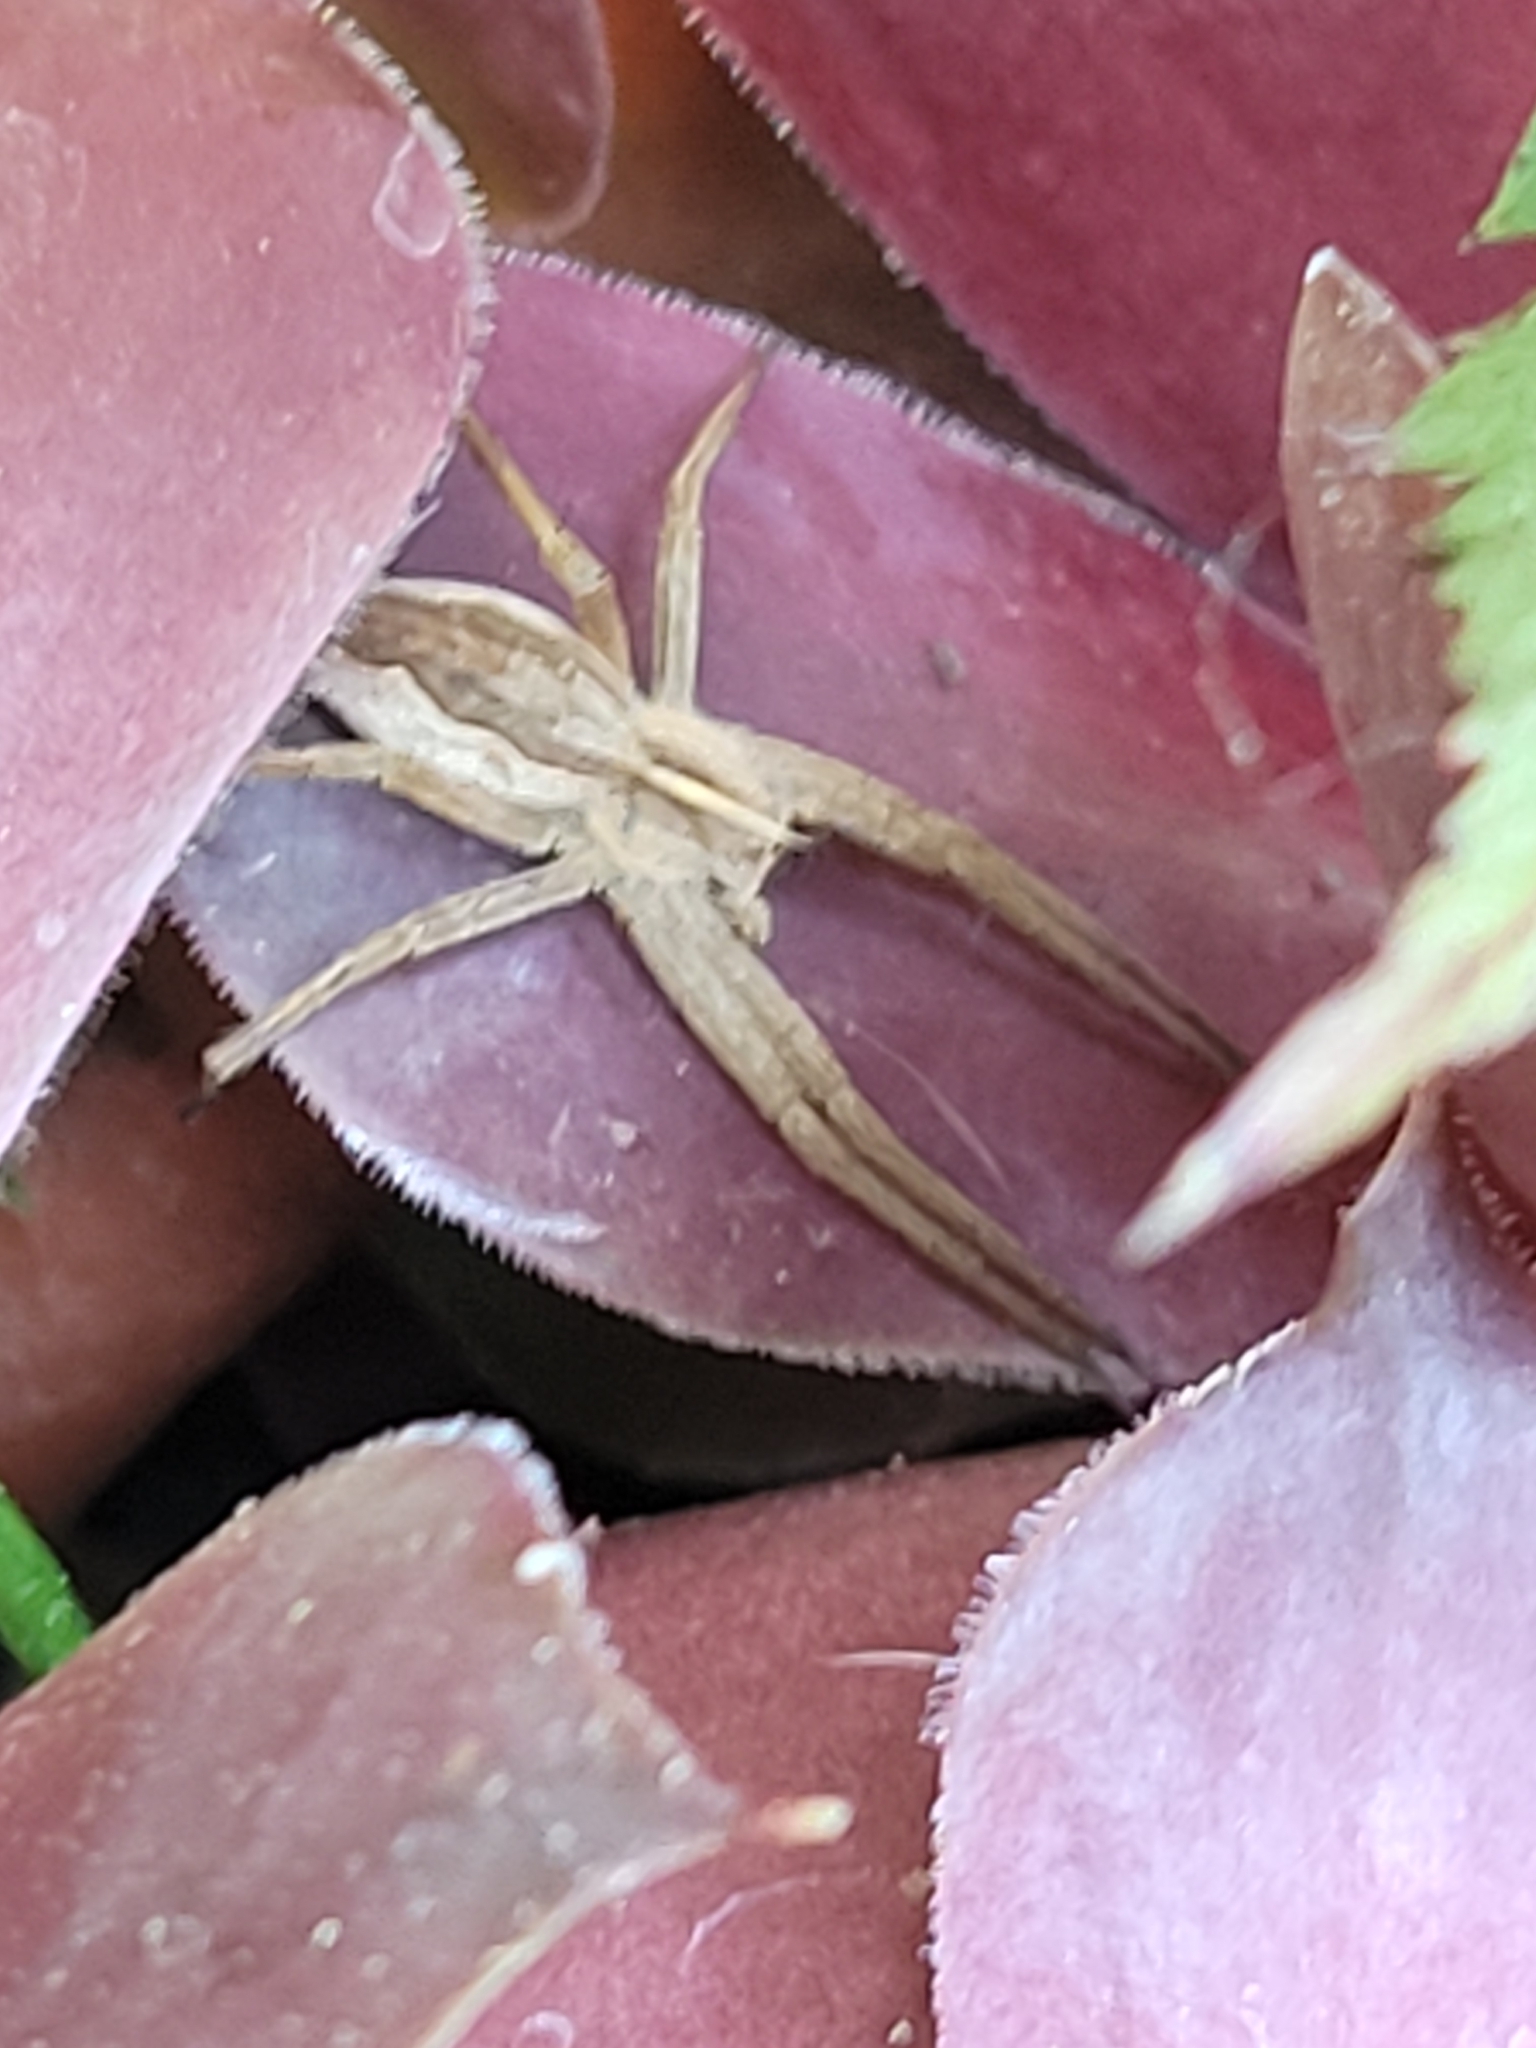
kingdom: Animalia
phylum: Arthropoda
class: Arachnida
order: Araneae
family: Pisauridae
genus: Pisaura
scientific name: Pisaura mirabilis
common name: Tent spider
